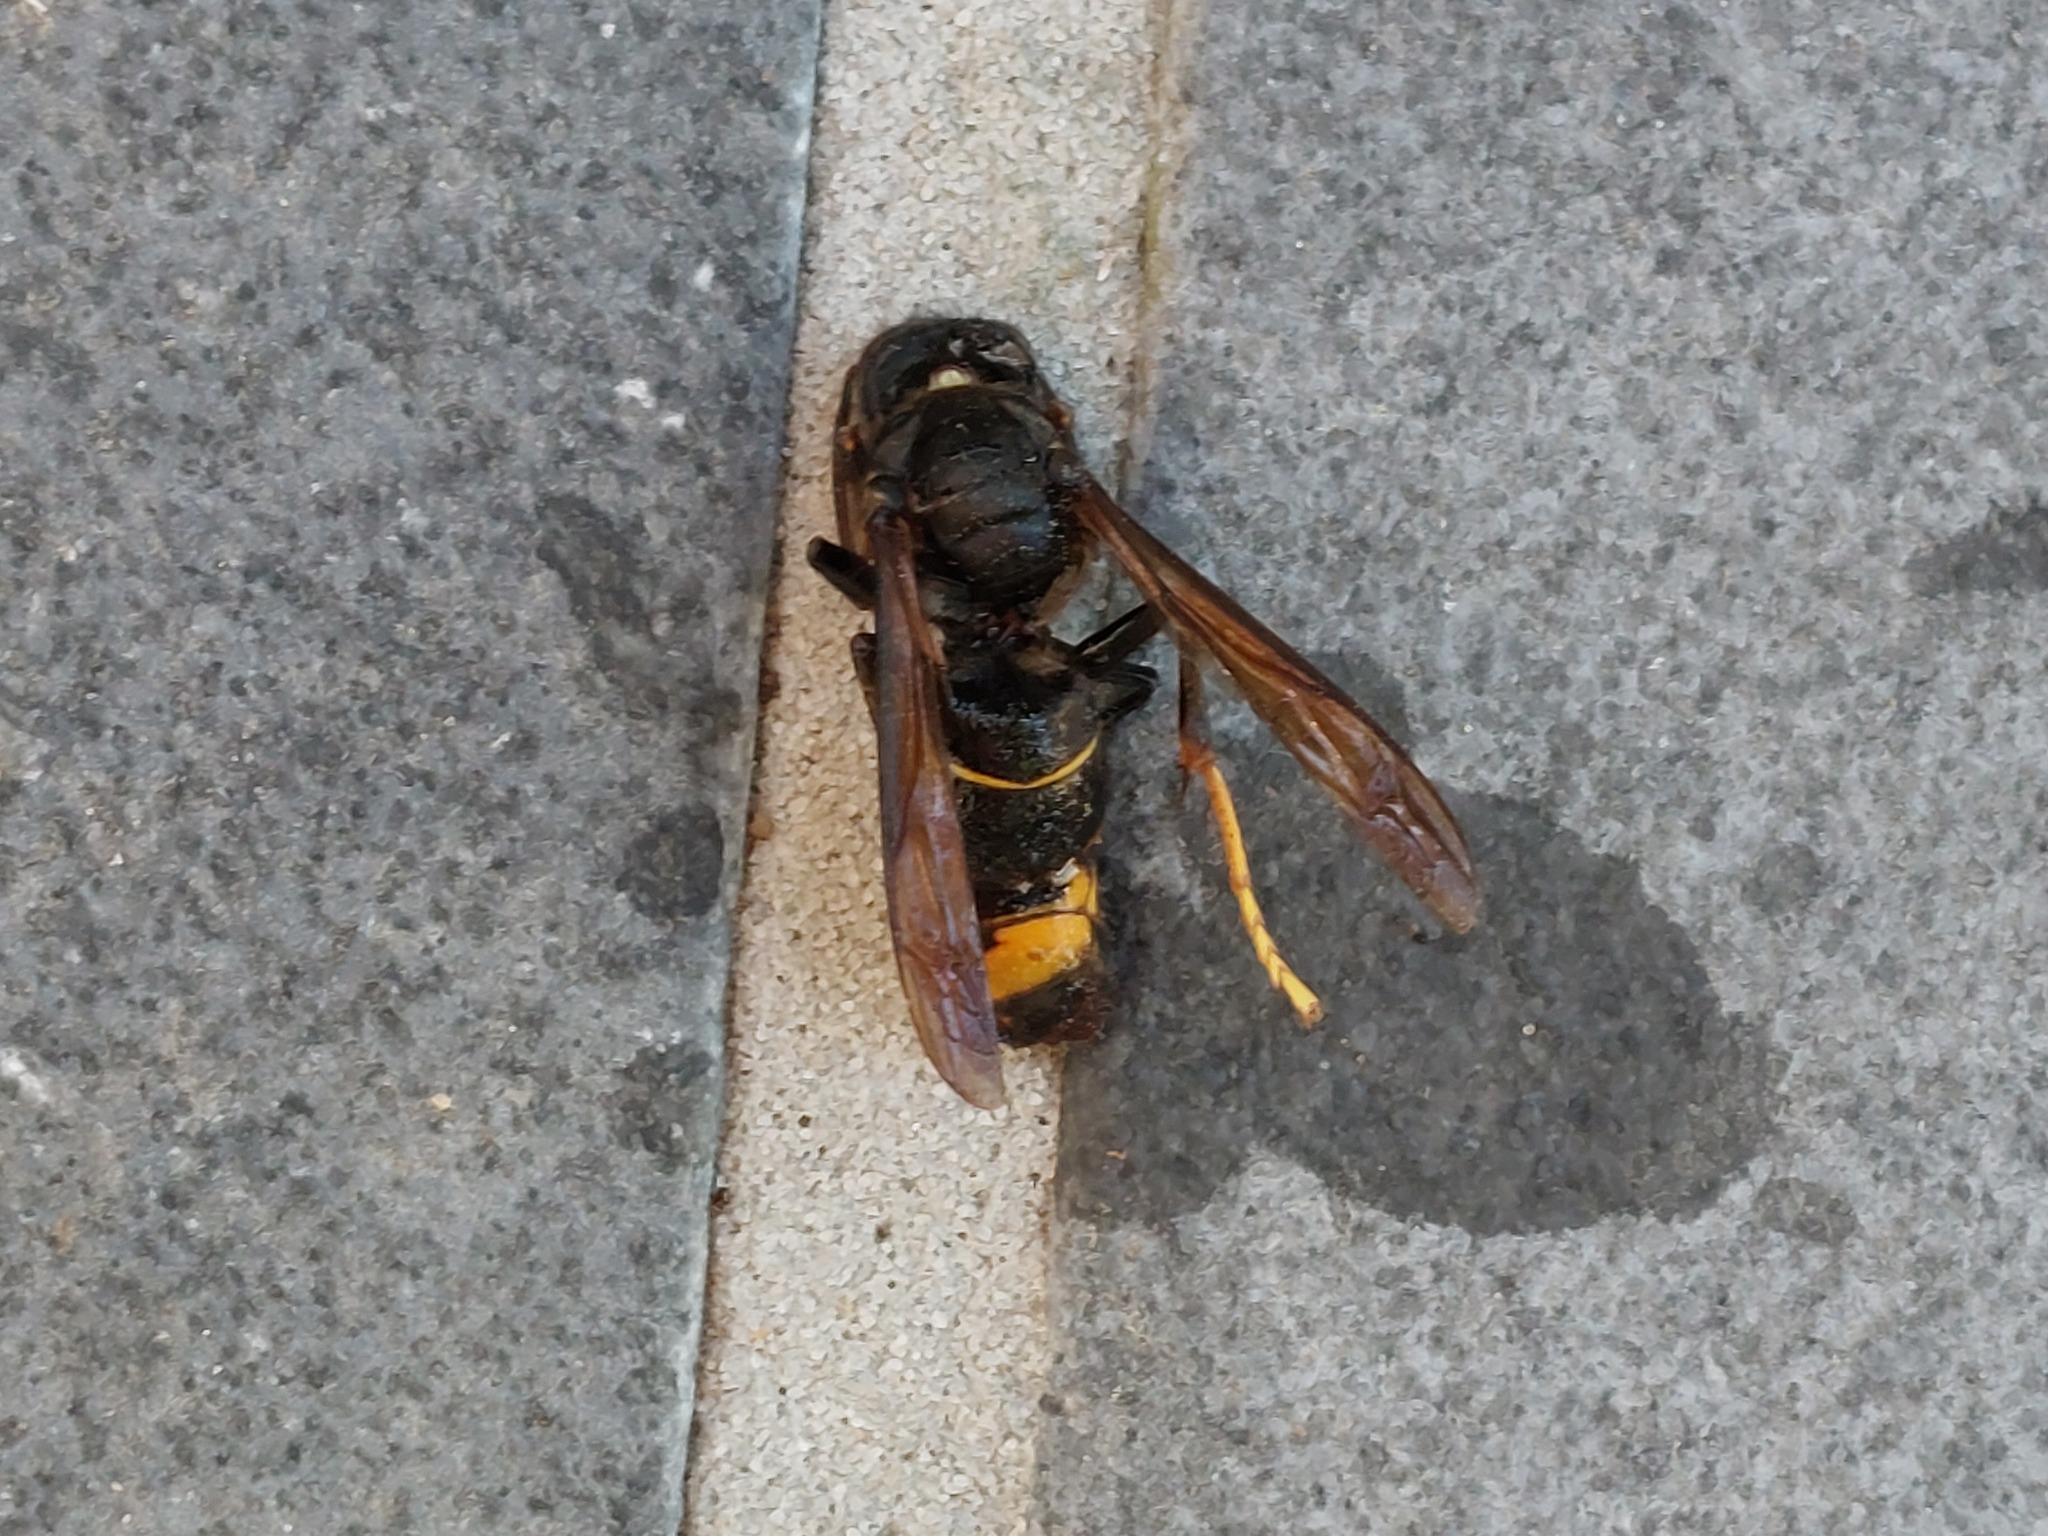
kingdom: Animalia
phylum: Arthropoda
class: Insecta
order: Hymenoptera
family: Vespidae
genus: Vespa
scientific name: Vespa velutina
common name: Asian hornet
